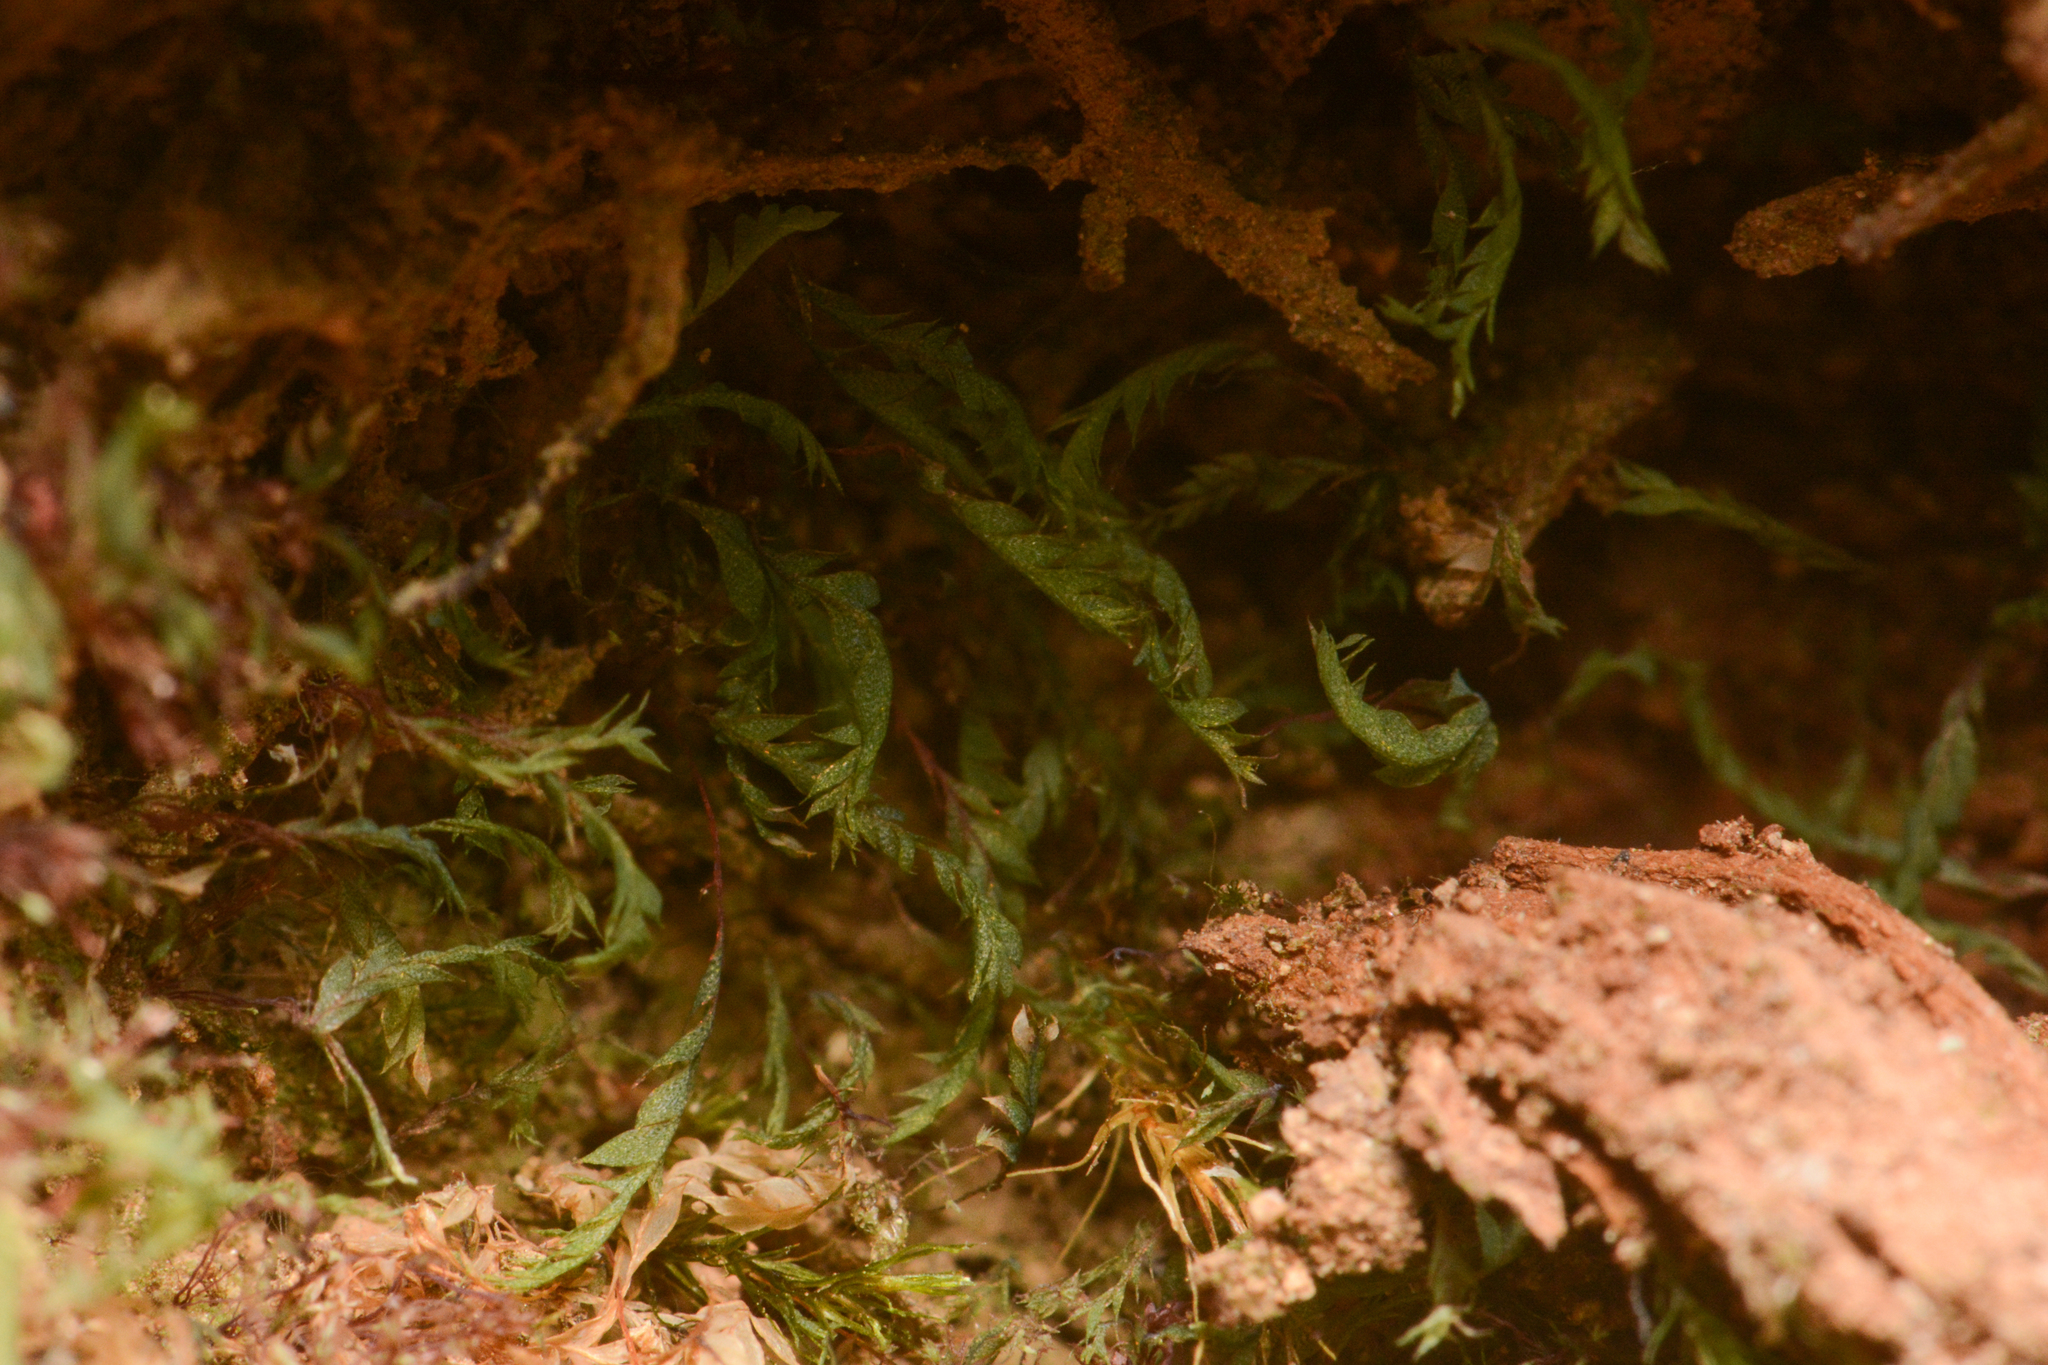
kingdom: Plantae
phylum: Bryophyta
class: Bryopsida
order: Dicranales
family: Schistostegaceae
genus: Schistostega
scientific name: Schistostega pennata
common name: Luminous moss
